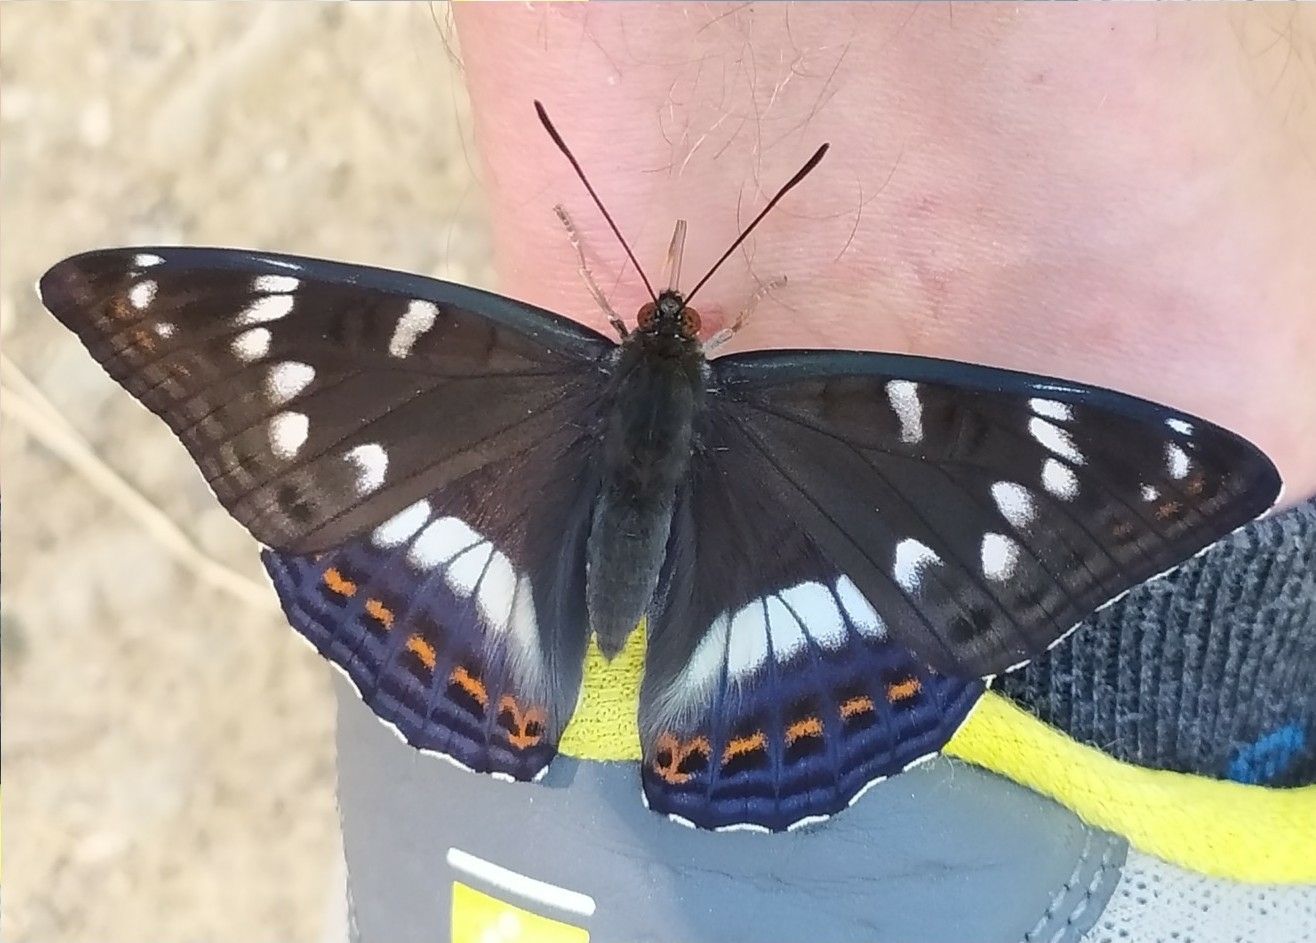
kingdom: Animalia
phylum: Arthropoda
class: Insecta
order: Lepidoptera
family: Nymphalidae
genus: Limenitis
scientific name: Limenitis populi
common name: Poplar admiral
